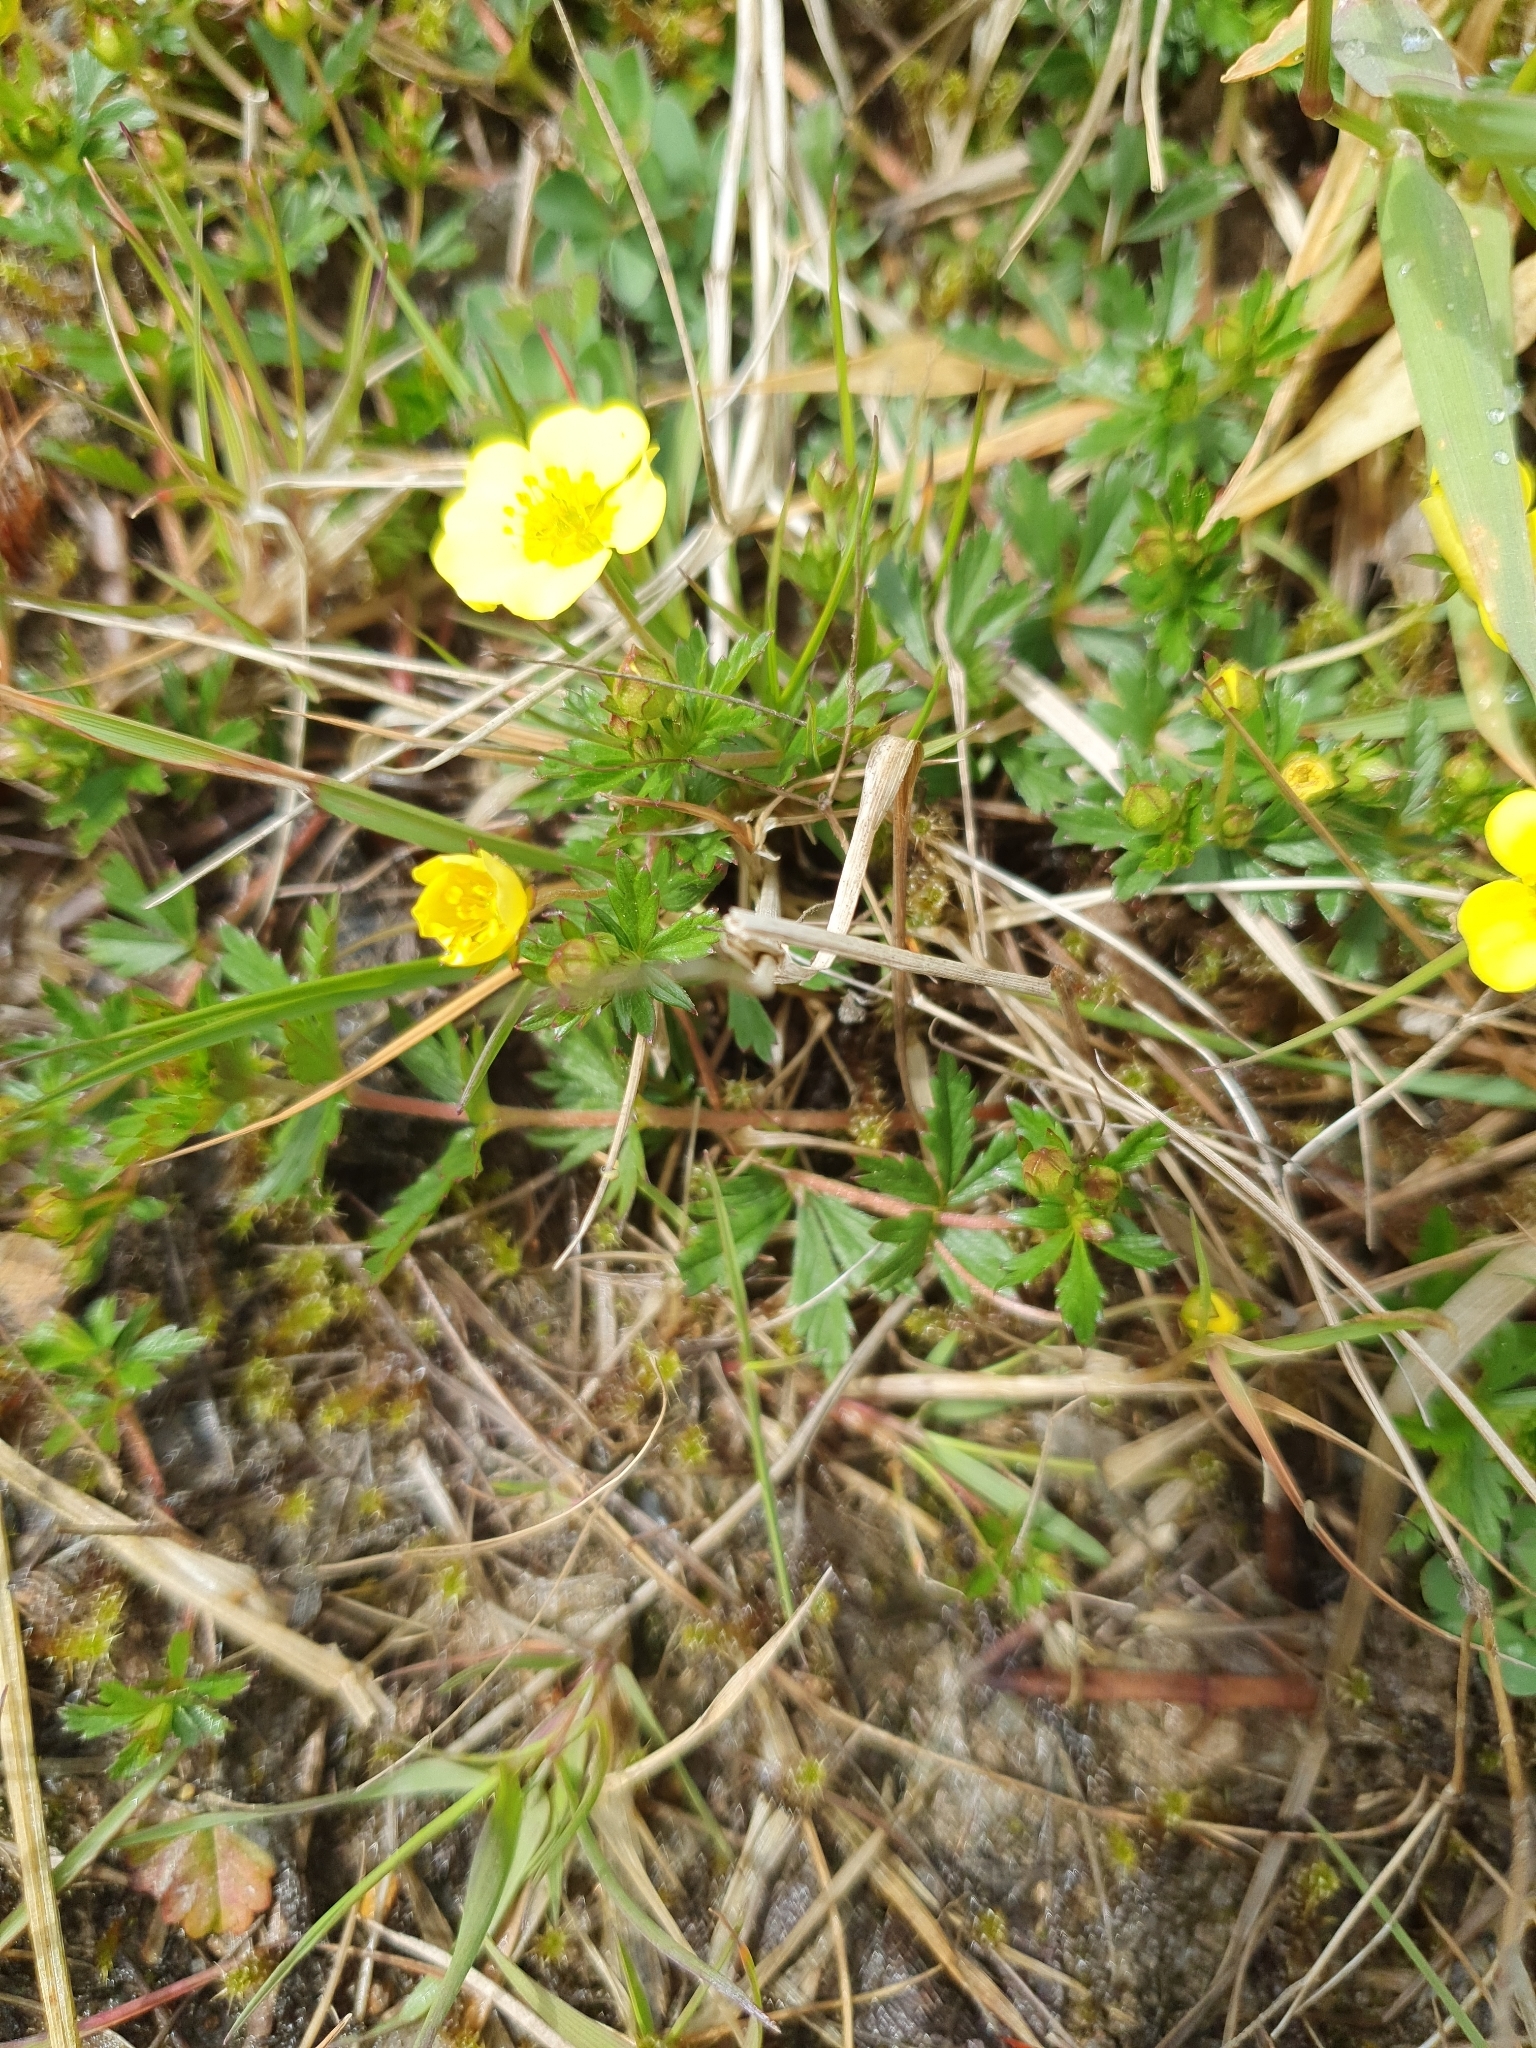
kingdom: Plantae
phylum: Tracheophyta
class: Magnoliopsida
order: Rosales
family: Rosaceae
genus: Potentilla
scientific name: Potentilla erecta
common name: Tormentil
